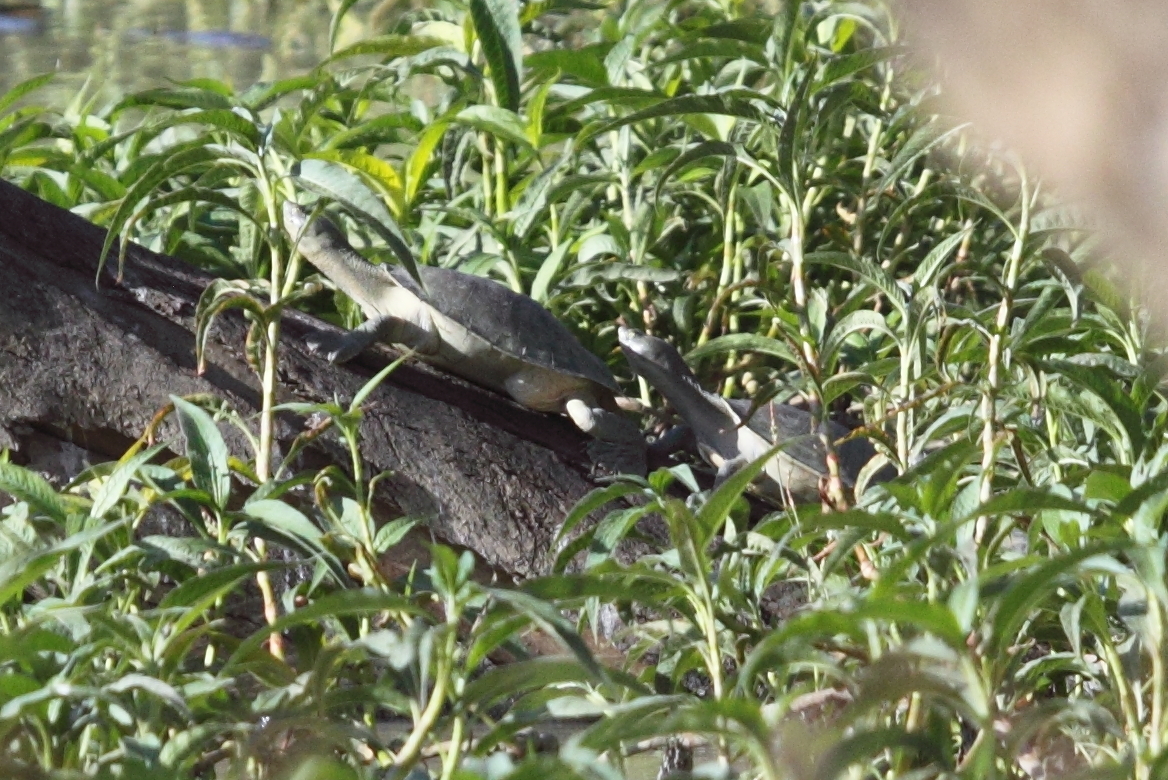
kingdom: Animalia
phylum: Chordata
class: Testudines
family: Chelidae
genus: Emydura
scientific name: Emydura macquarii
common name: Murray river turtle
